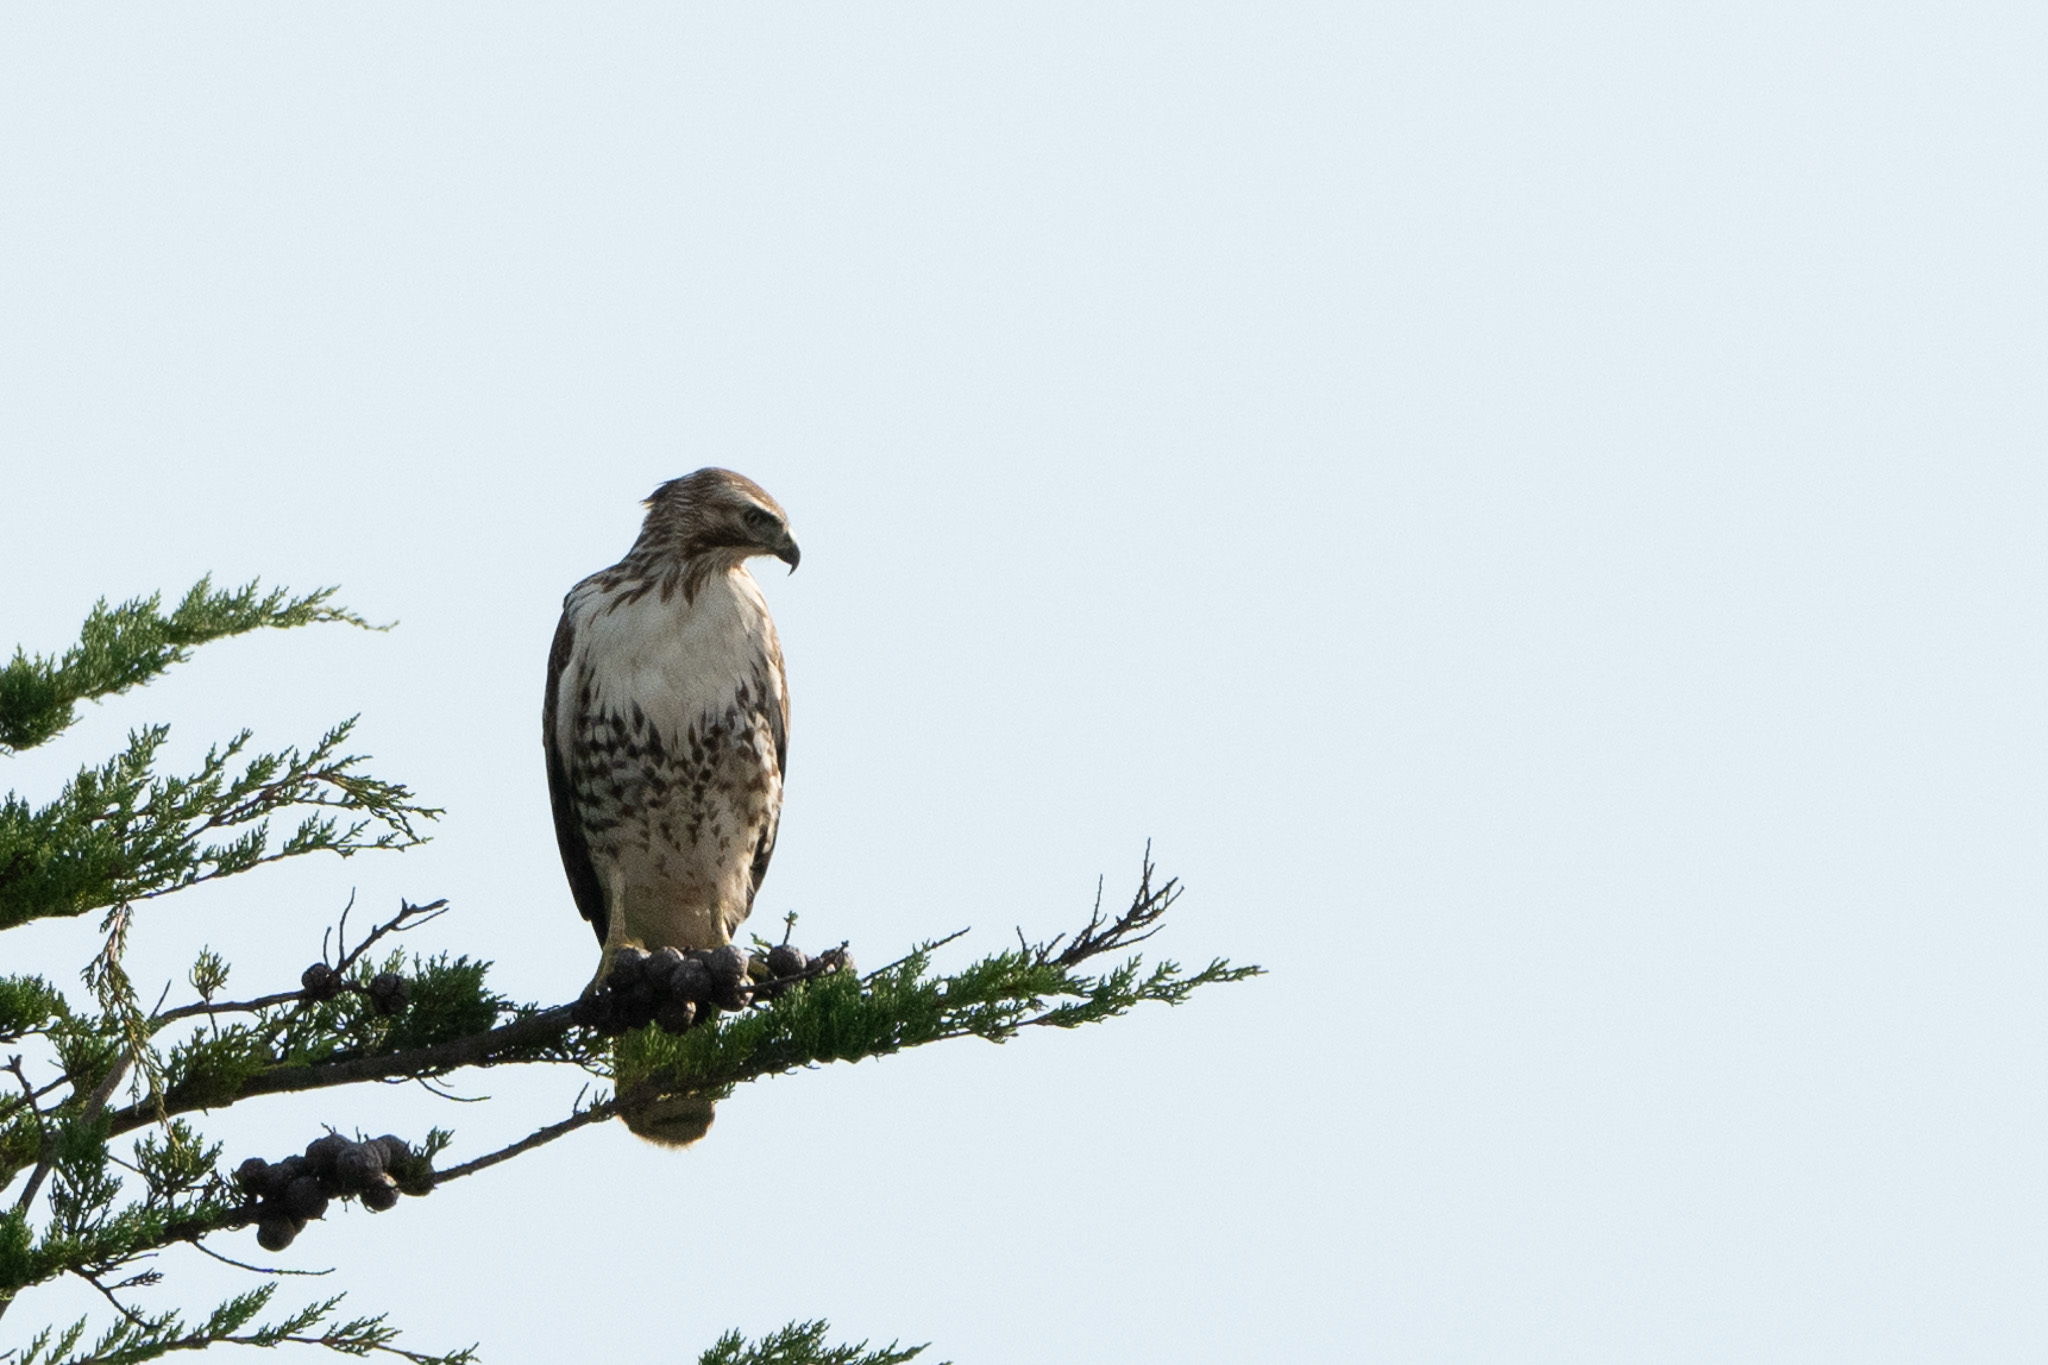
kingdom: Animalia
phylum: Chordata
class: Aves
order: Accipitriformes
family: Accipitridae
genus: Buteo
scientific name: Buteo jamaicensis
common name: Red-tailed hawk
